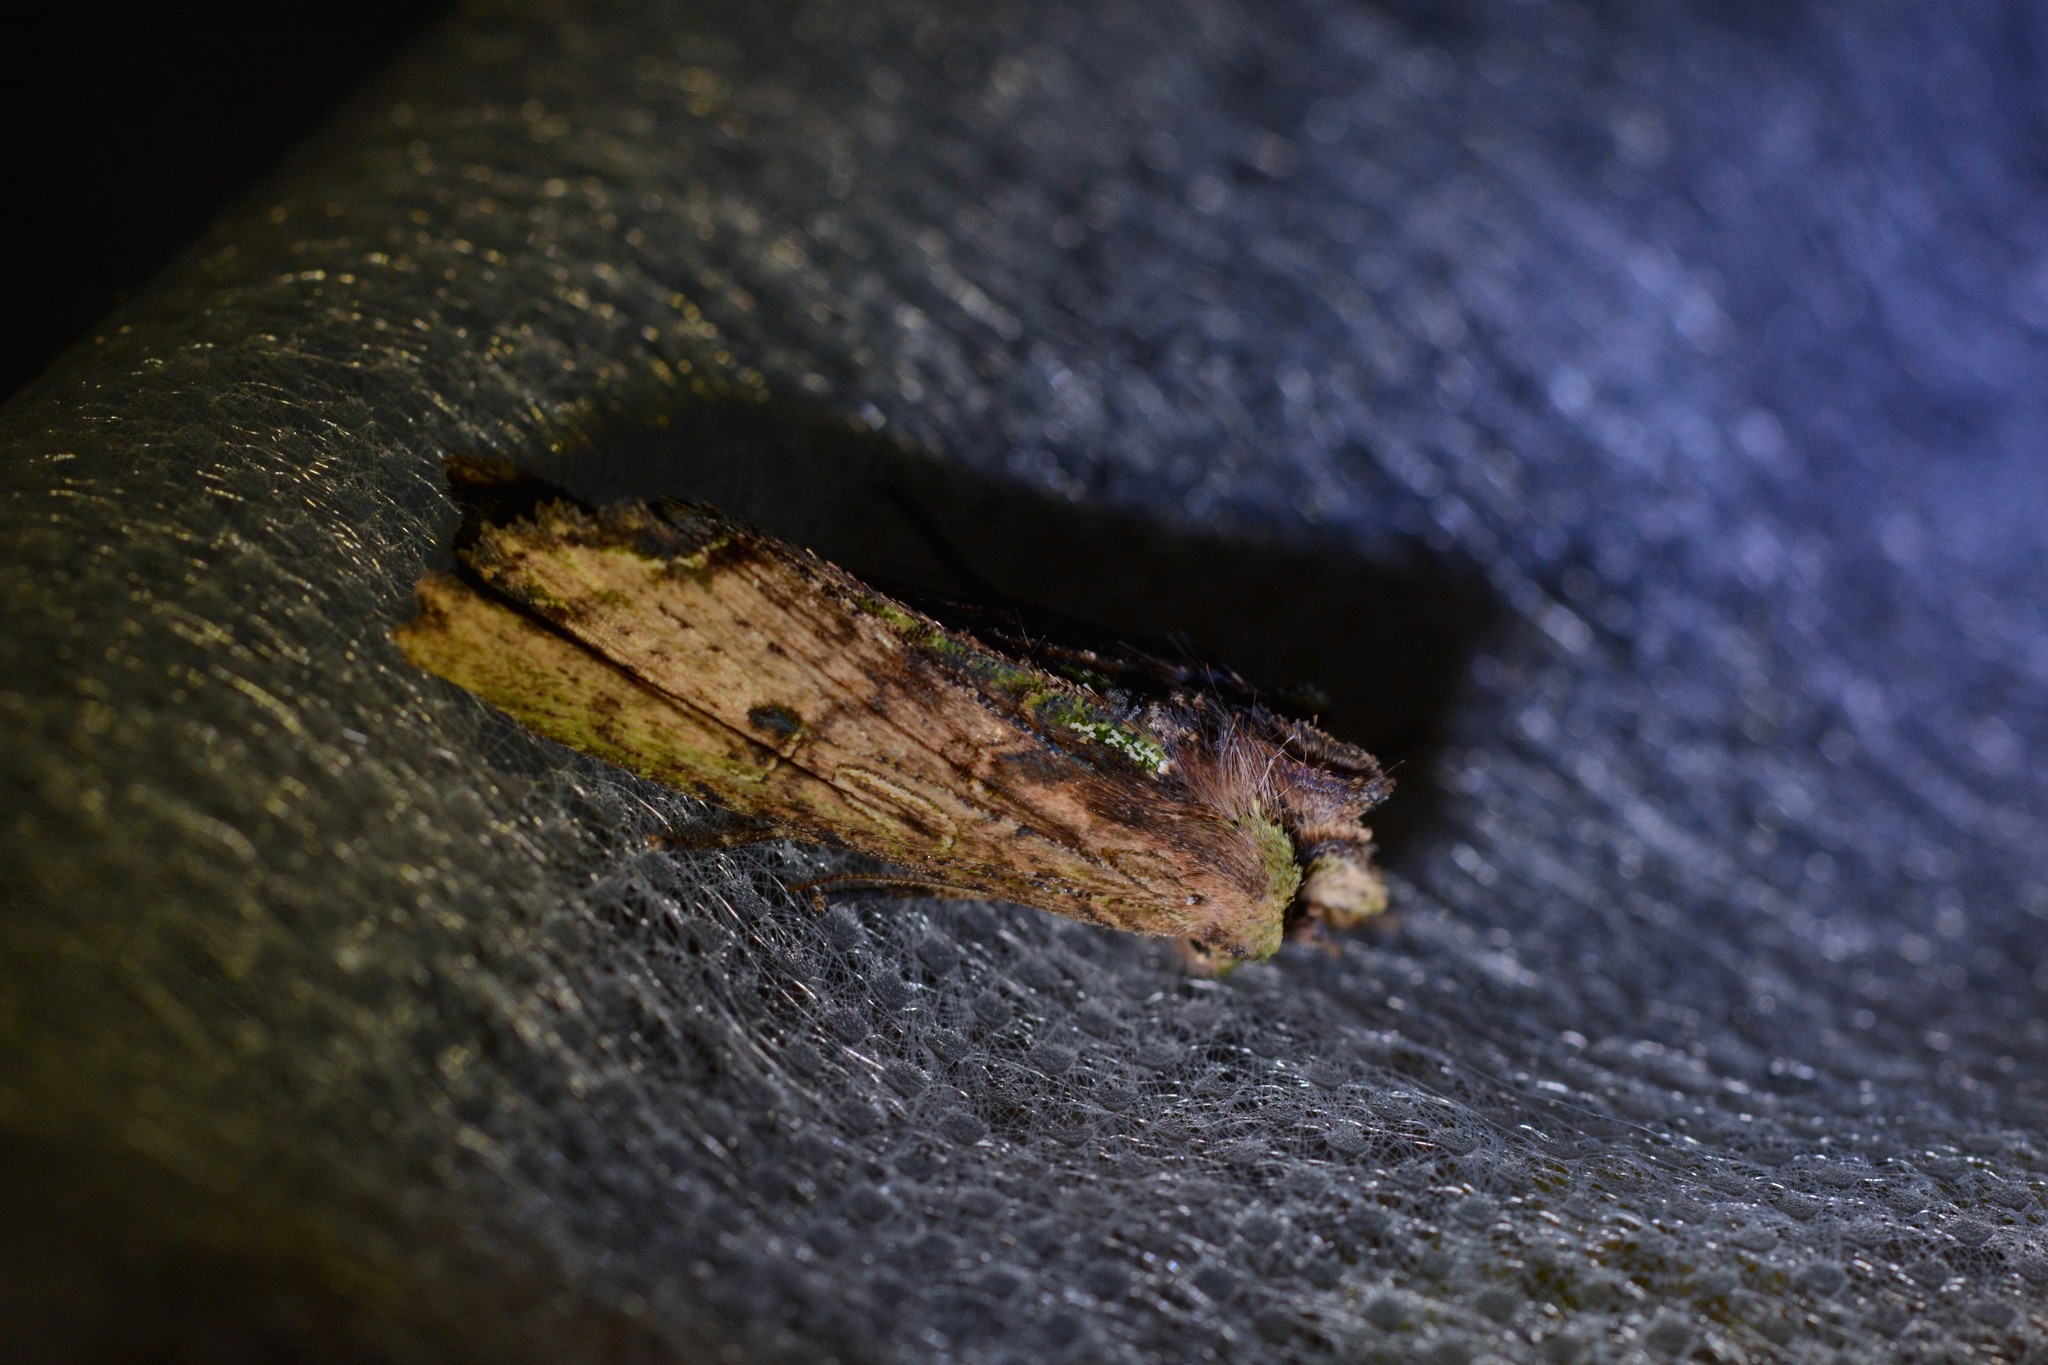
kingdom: Animalia
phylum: Arthropoda
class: Insecta
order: Lepidoptera
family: Noctuidae
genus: Meterana
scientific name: Meterana coeleno
